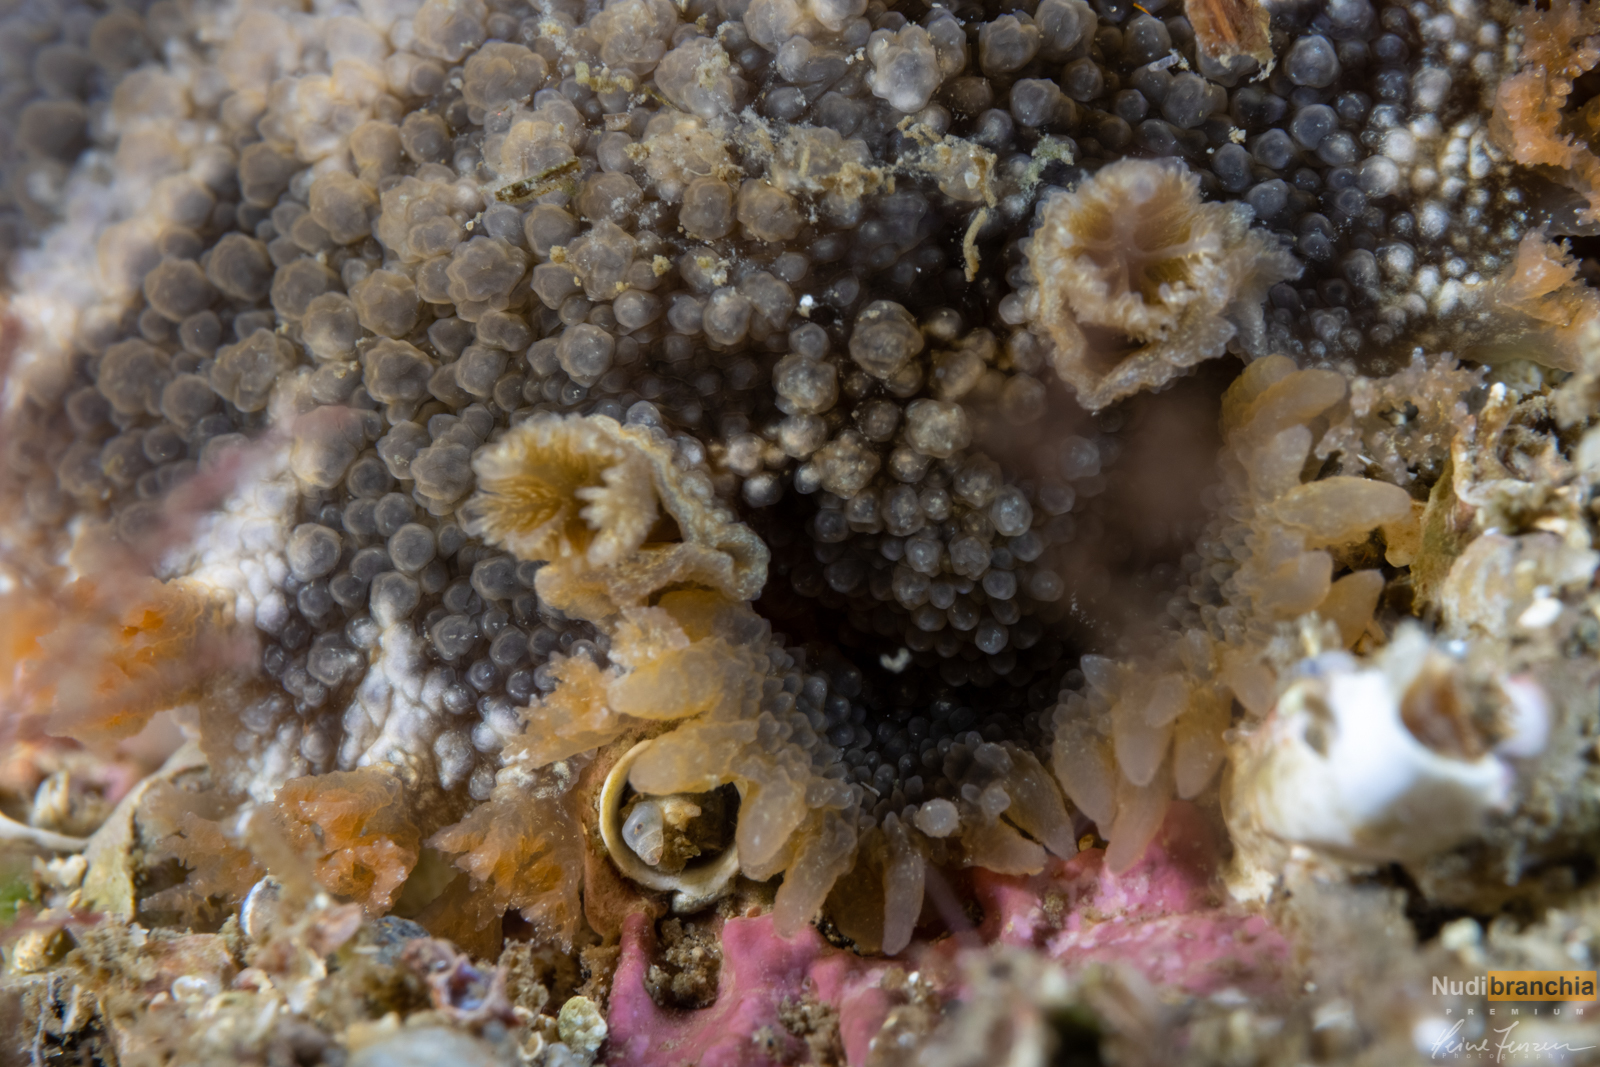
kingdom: Animalia
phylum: Mollusca
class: Gastropoda
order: Nudibranchia
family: Tritoniidae
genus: Tritonia
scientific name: Tritonia hombergii
